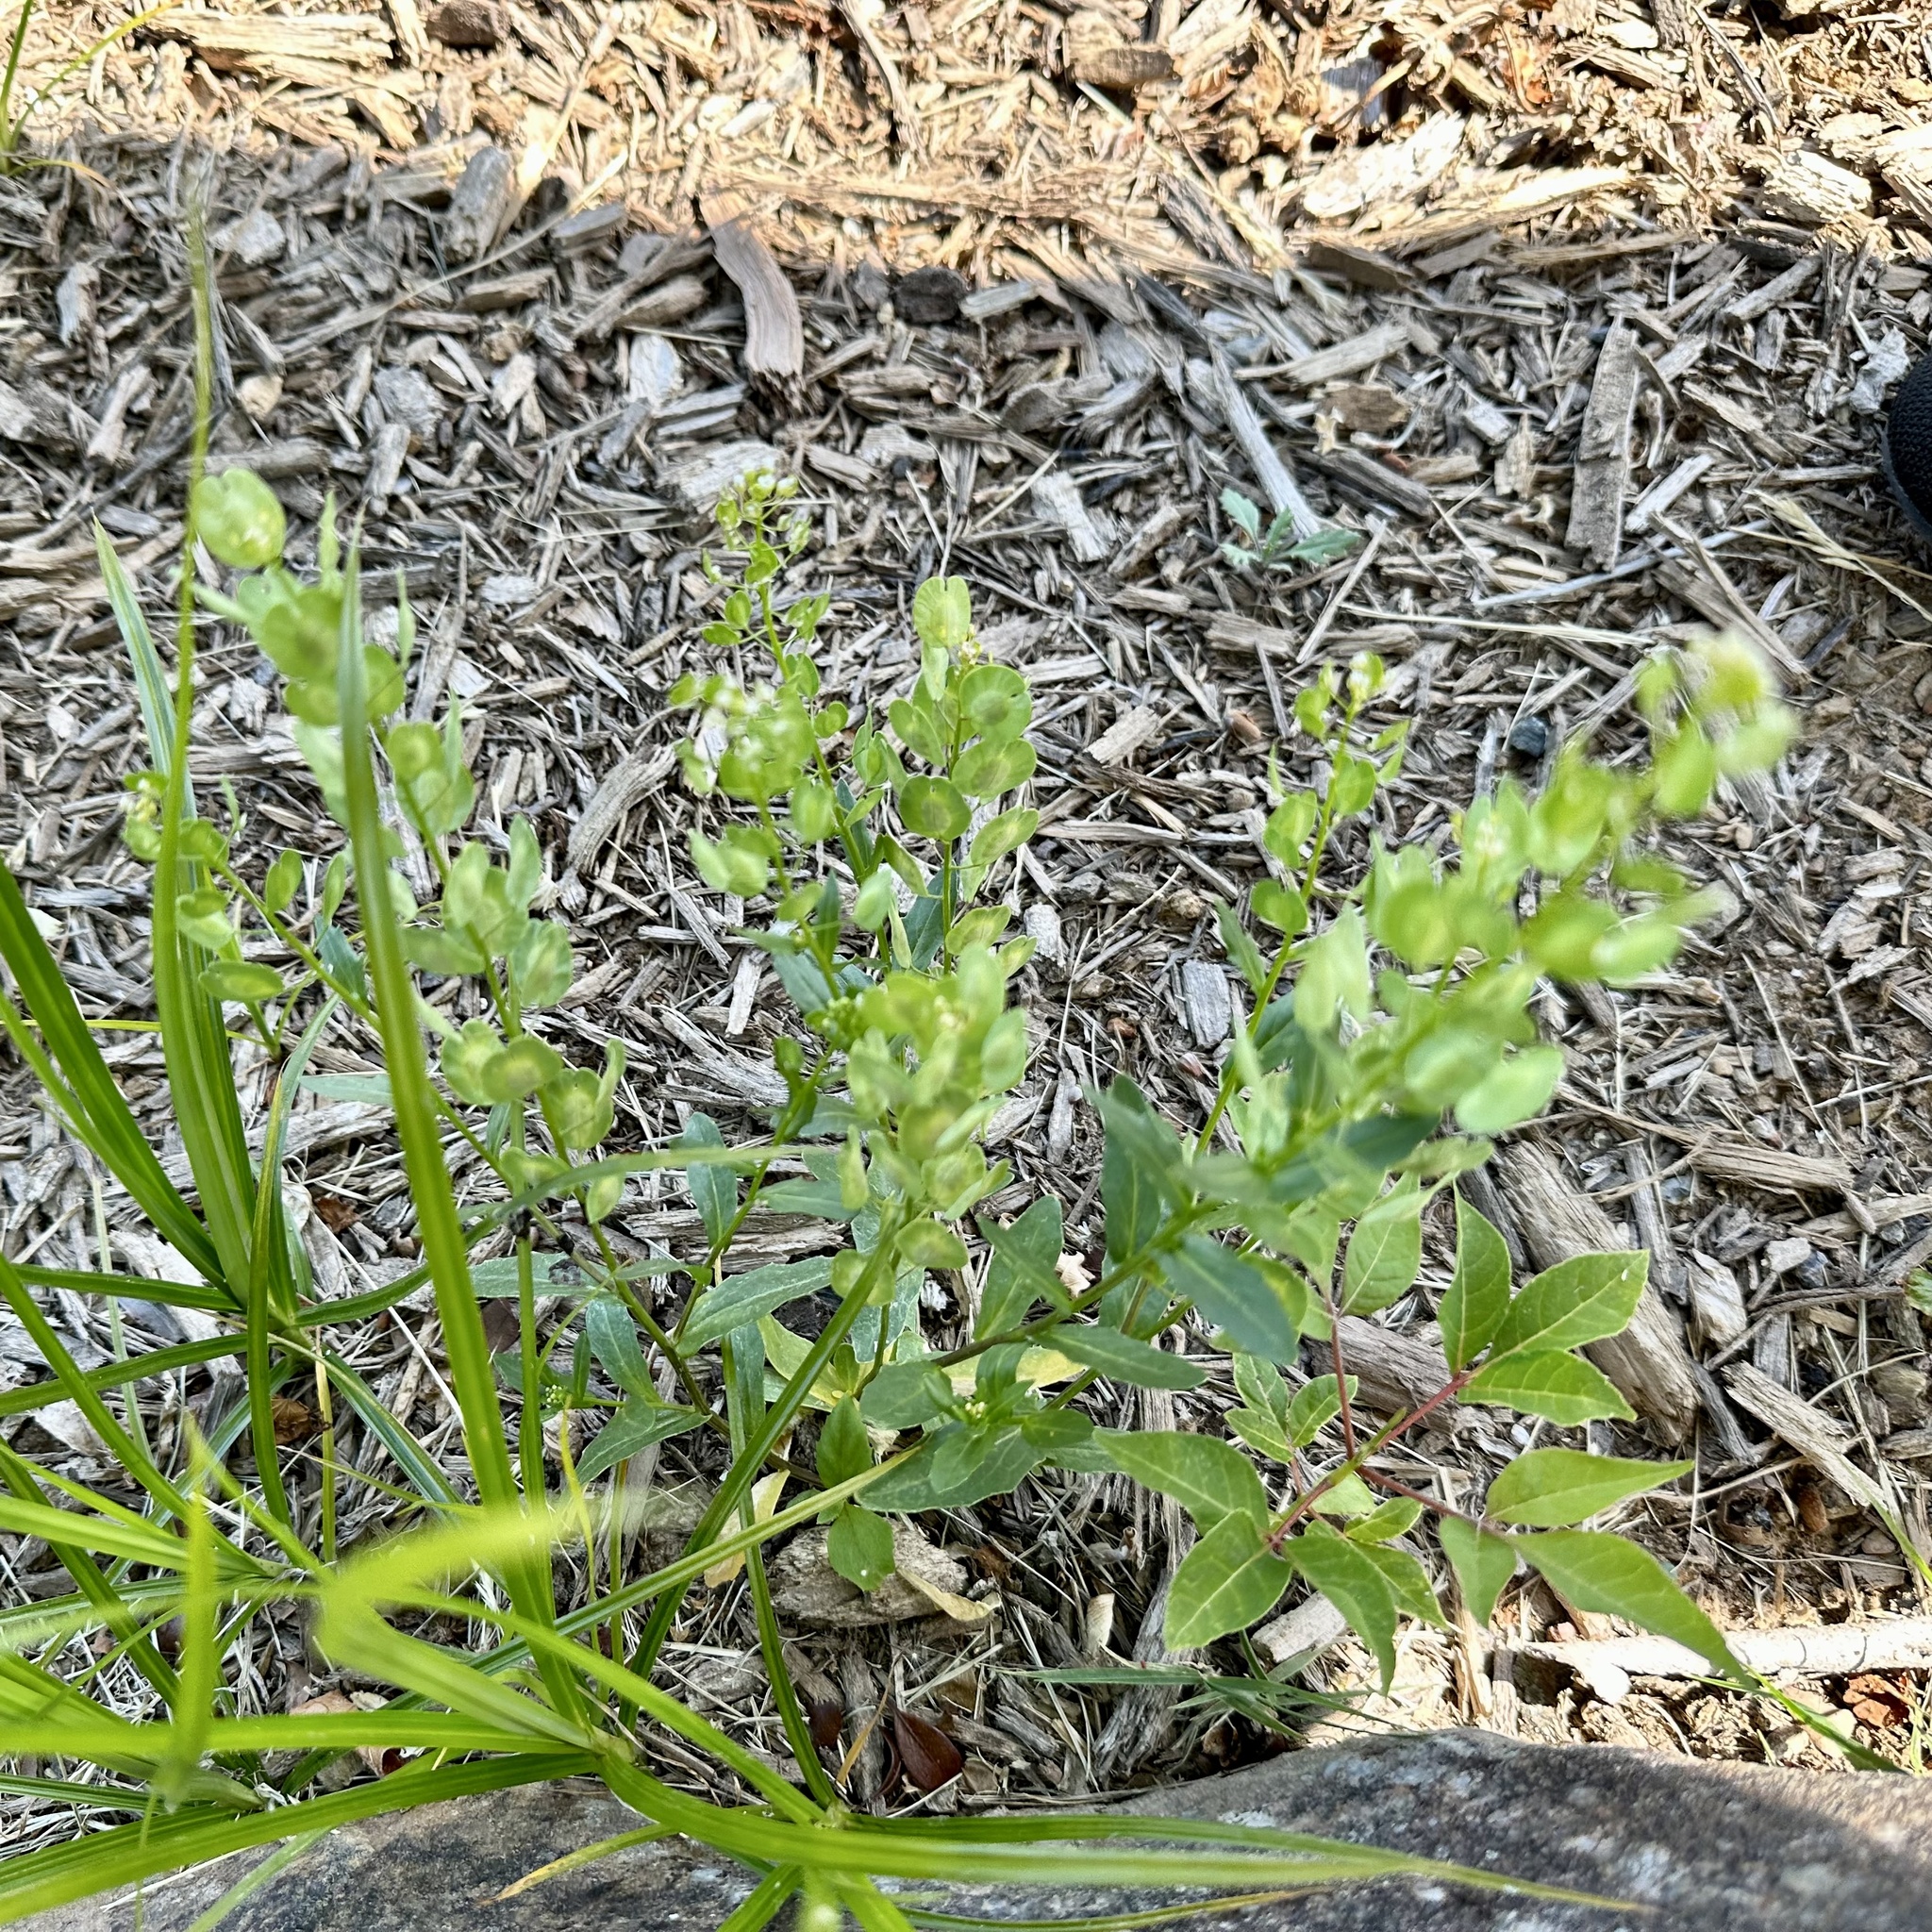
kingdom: Plantae
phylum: Tracheophyta
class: Magnoliopsida
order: Brassicales
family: Brassicaceae
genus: Thlaspi
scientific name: Thlaspi arvense
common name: Field pennycress
